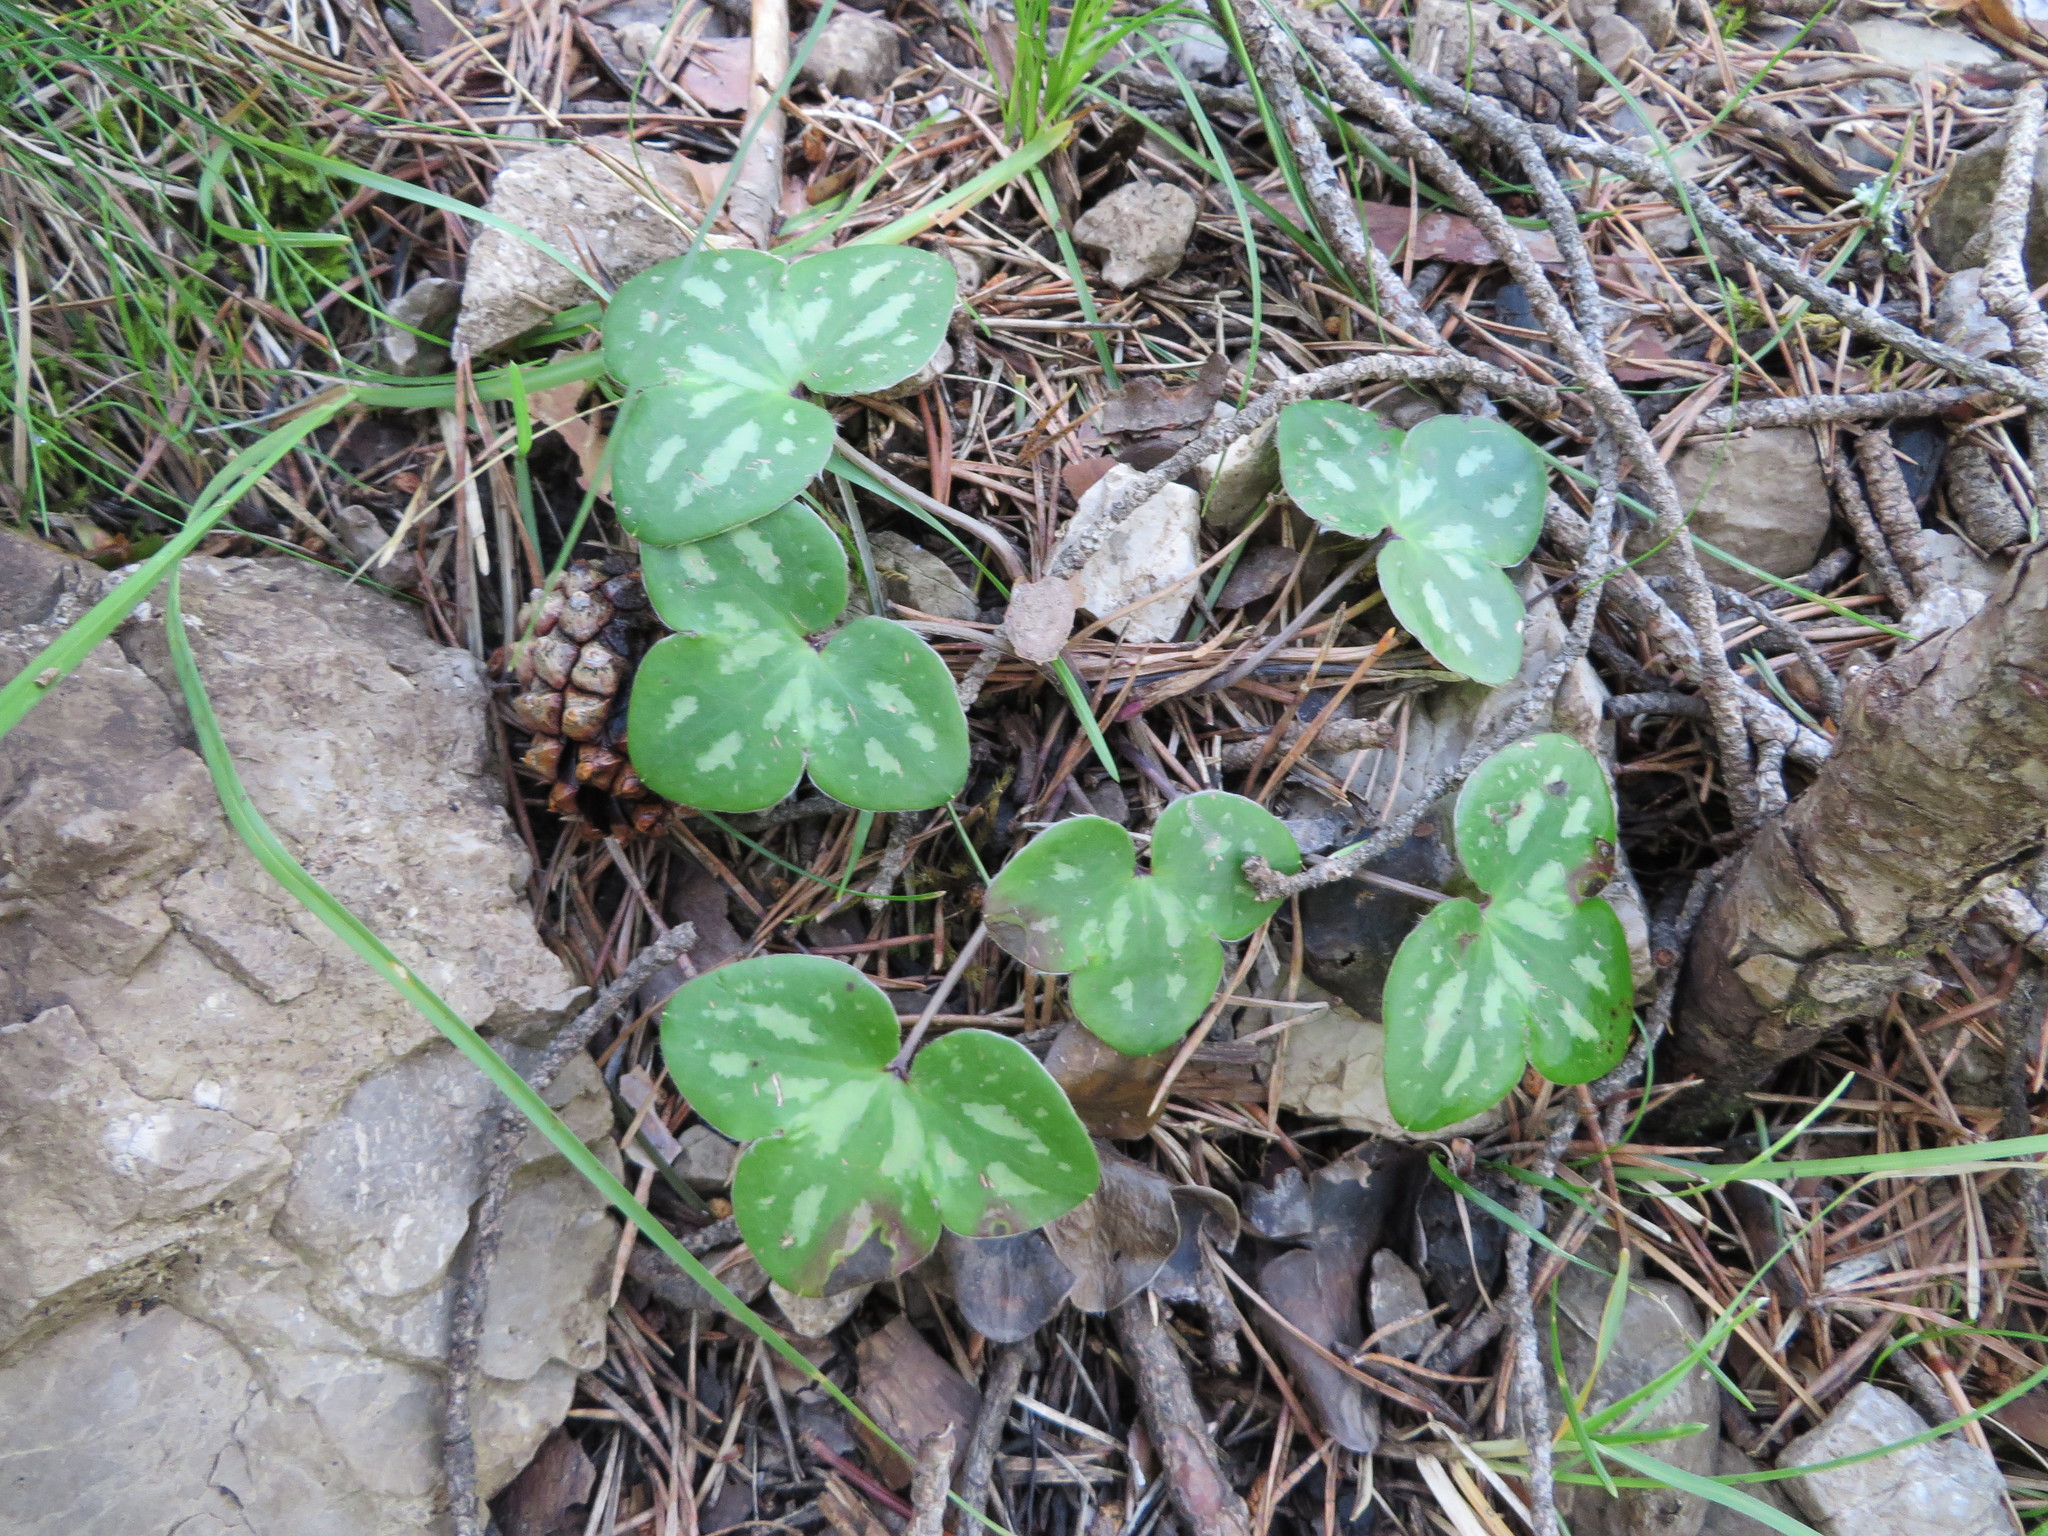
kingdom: Plantae
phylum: Tracheophyta
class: Magnoliopsida
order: Ranunculales
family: Ranunculaceae
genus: Hepatica
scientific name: Hepatica nobilis
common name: Liverleaf
